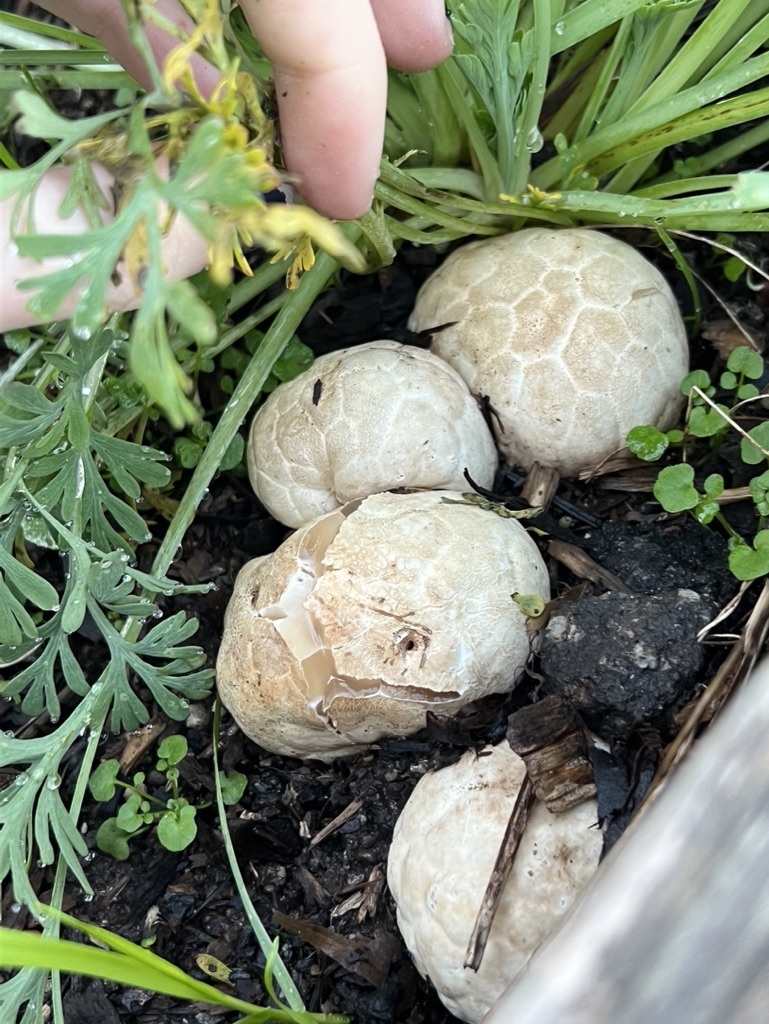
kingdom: Fungi
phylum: Basidiomycota
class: Agaricomycetes
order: Phallales
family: Phallaceae
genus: Clathrus
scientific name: Clathrus ruber
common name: Red cage
